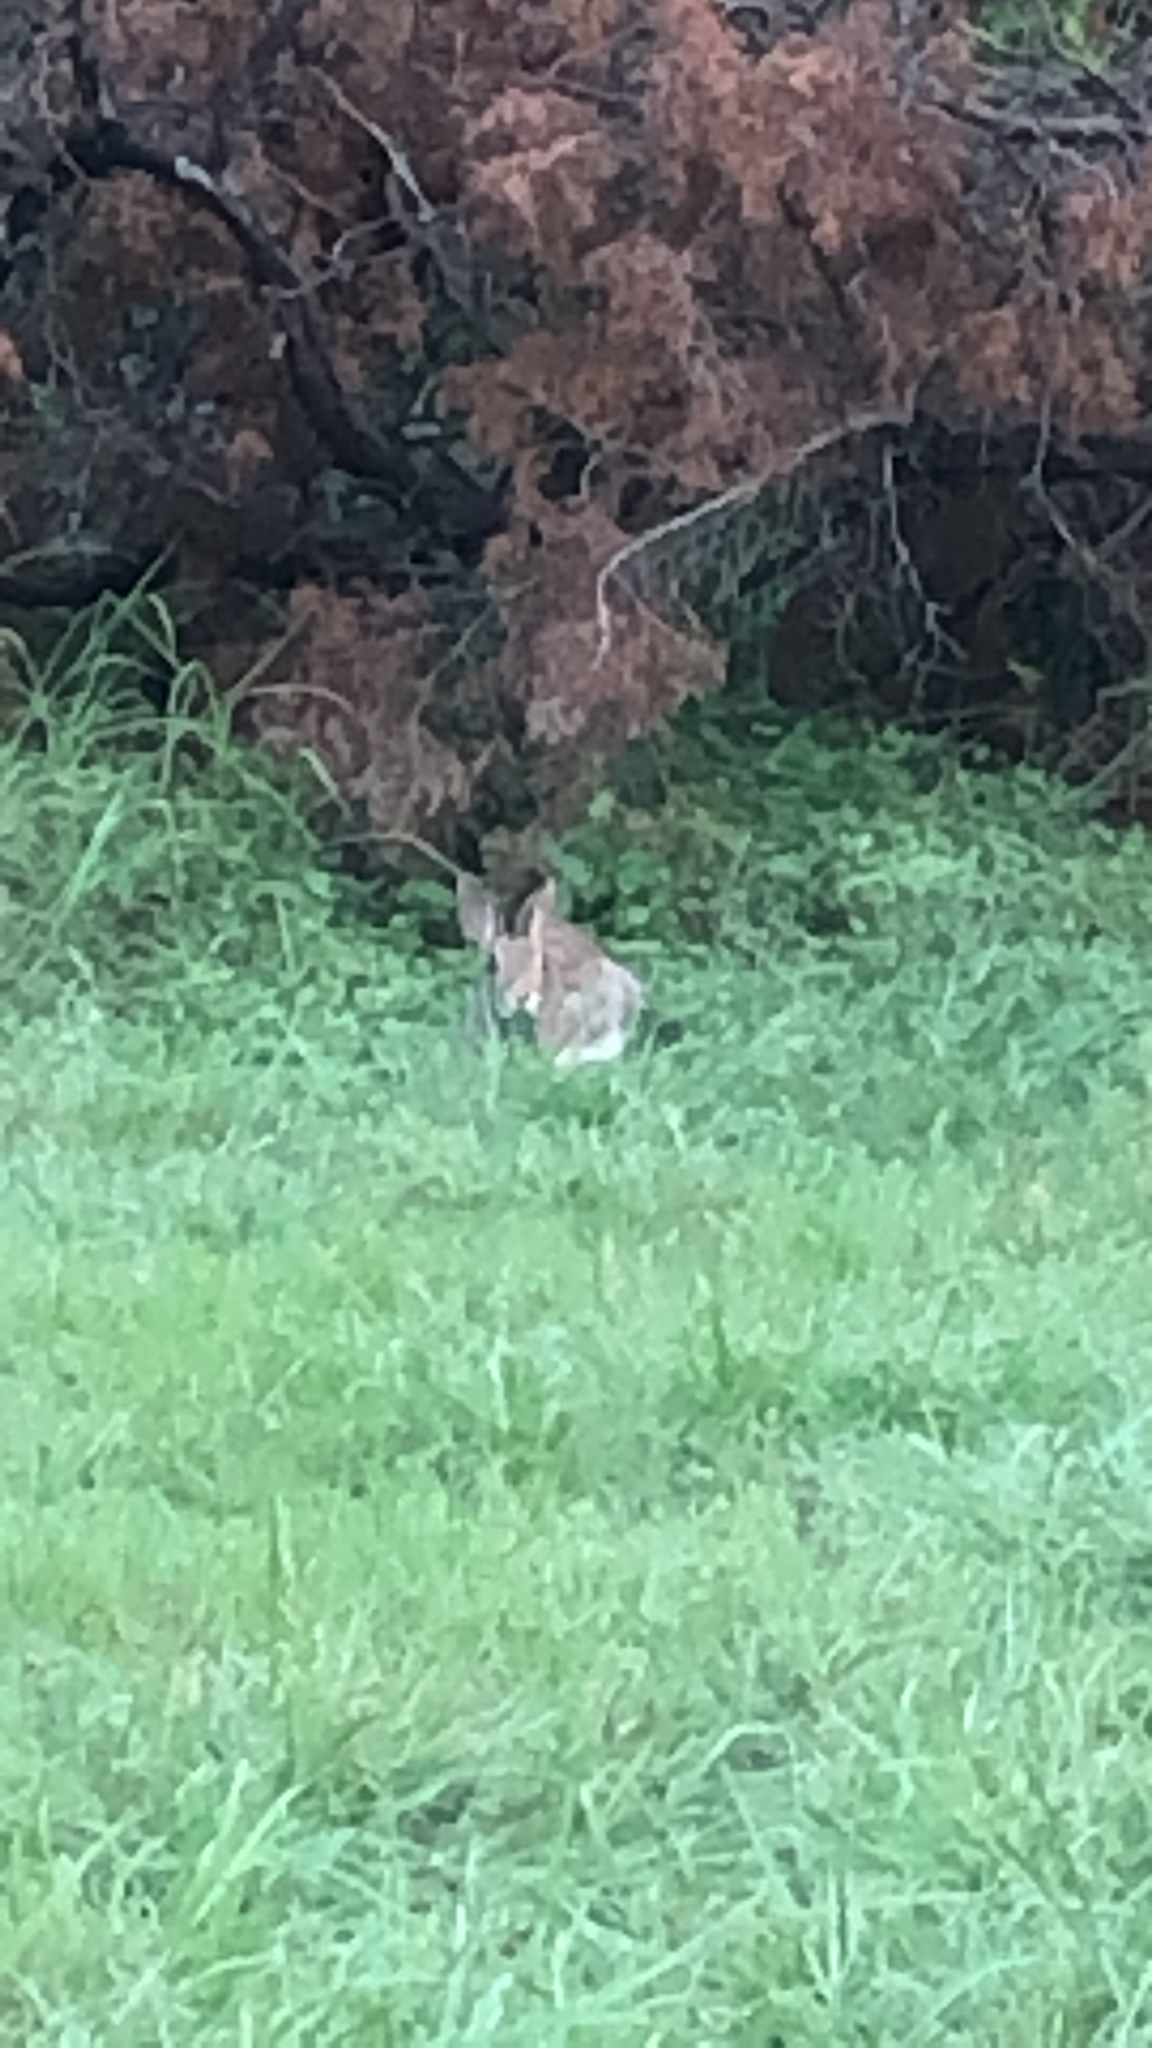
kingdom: Animalia
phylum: Chordata
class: Mammalia
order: Lagomorpha
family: Leporidae
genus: Sylvilagus
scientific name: Sylvilagus floridanus
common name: Eastern cottontail
